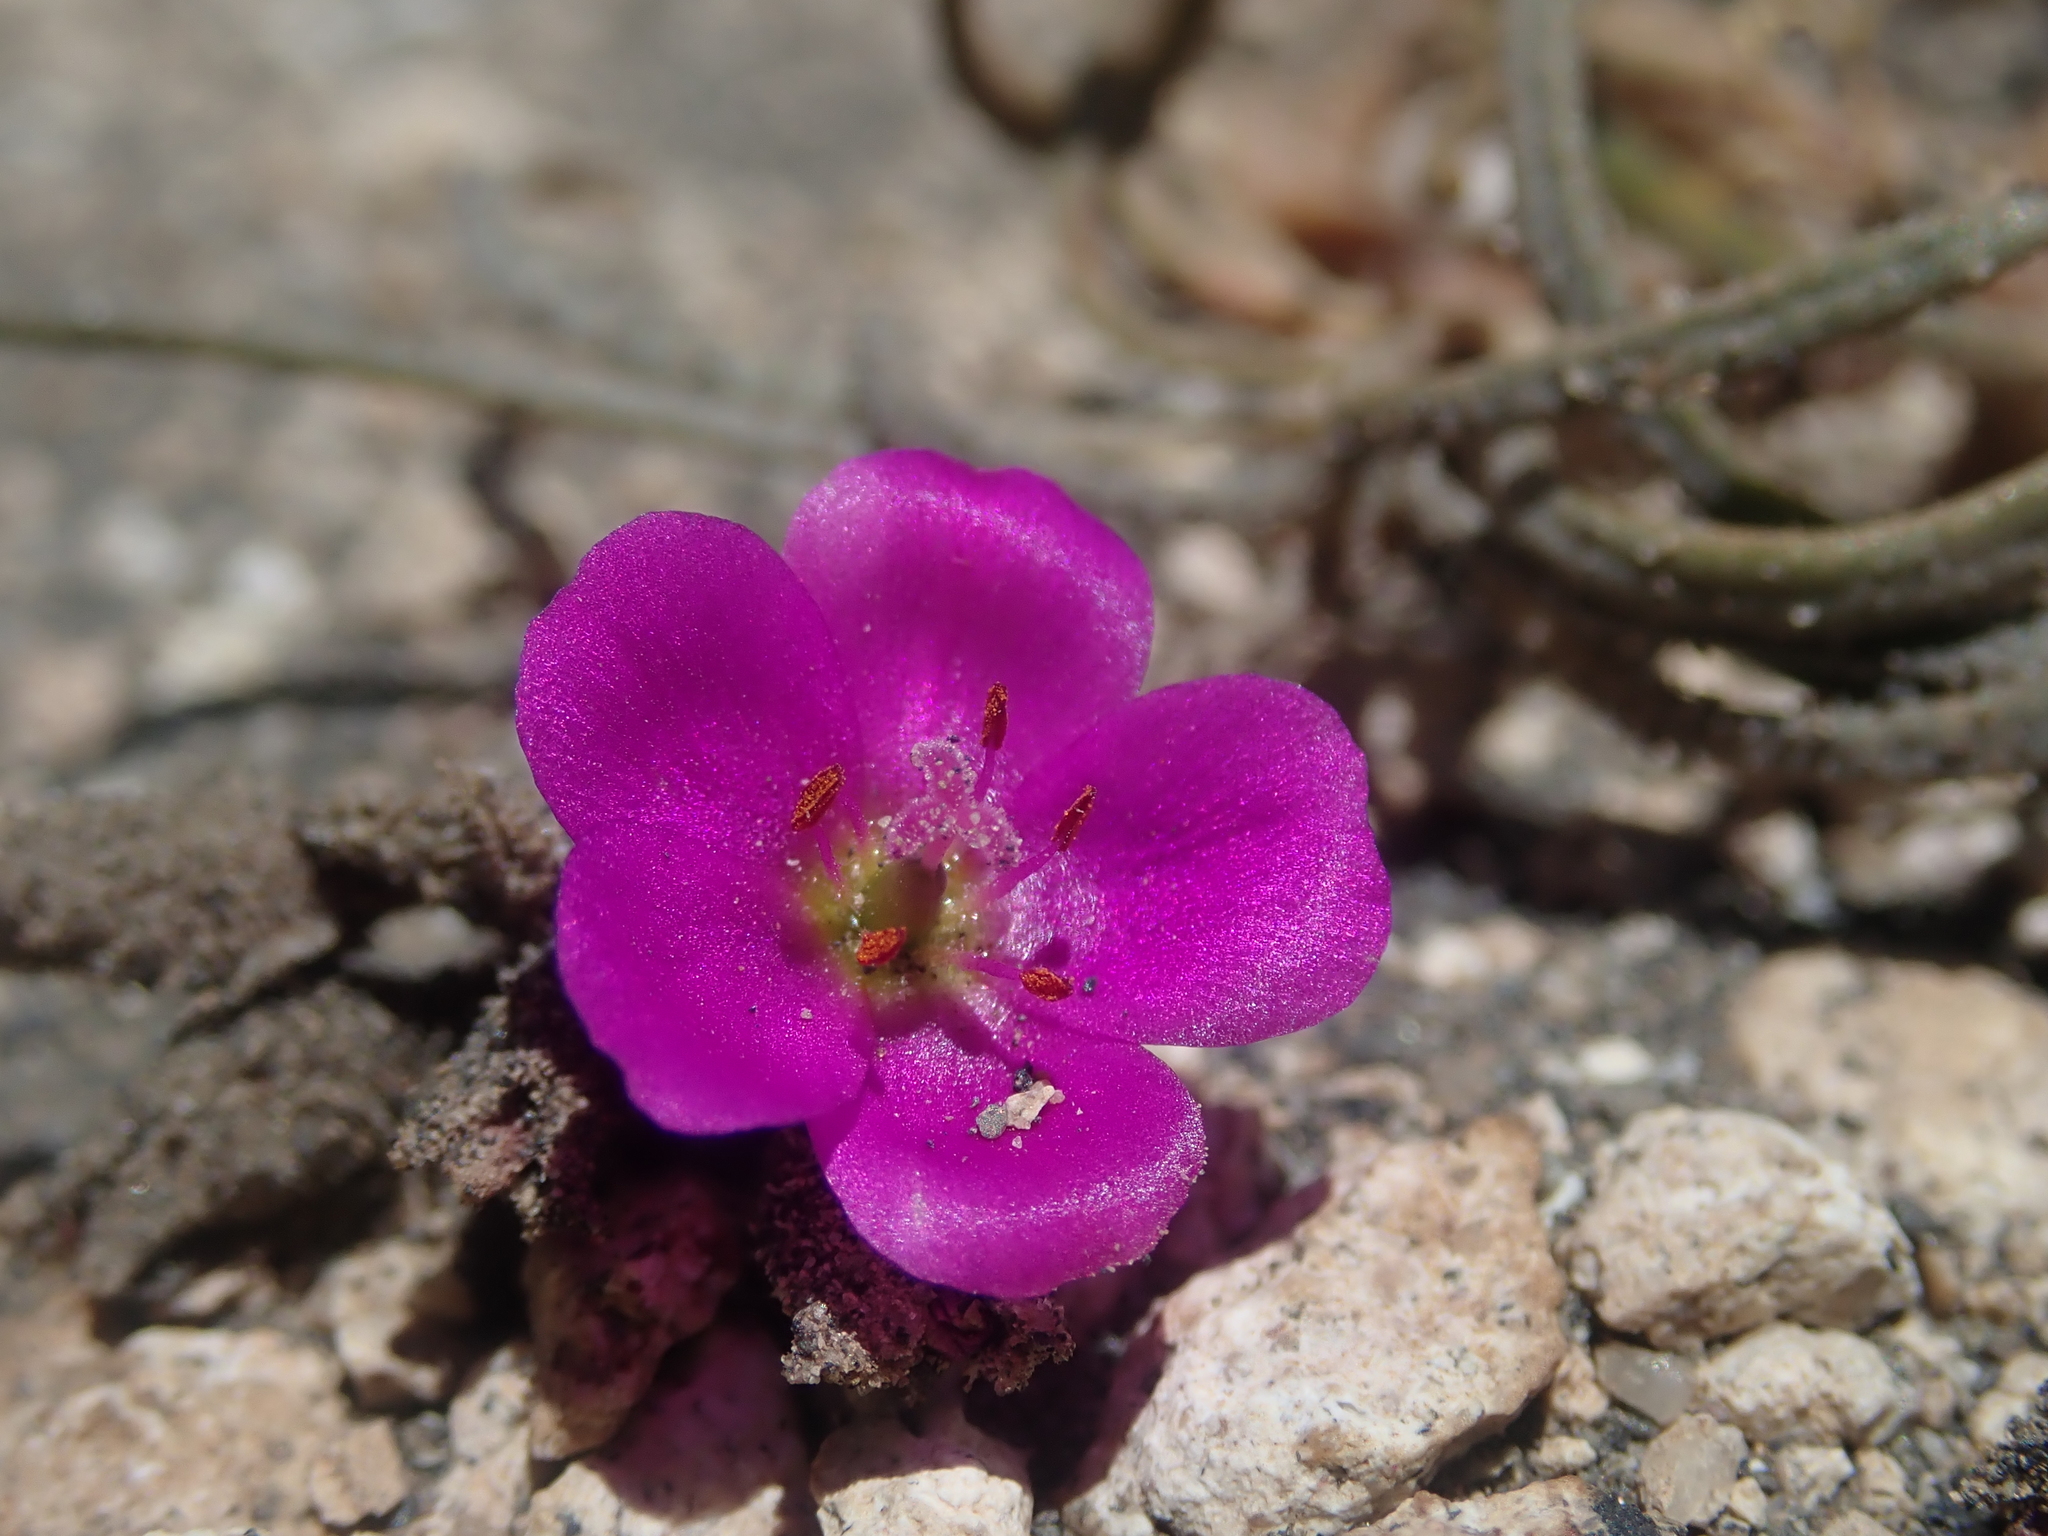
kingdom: Plantae
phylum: Tracheophyta
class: Magnoliopsida
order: Caryophyllales
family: Montiaceae
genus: Montiopsis
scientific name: Montiopsis gayana
